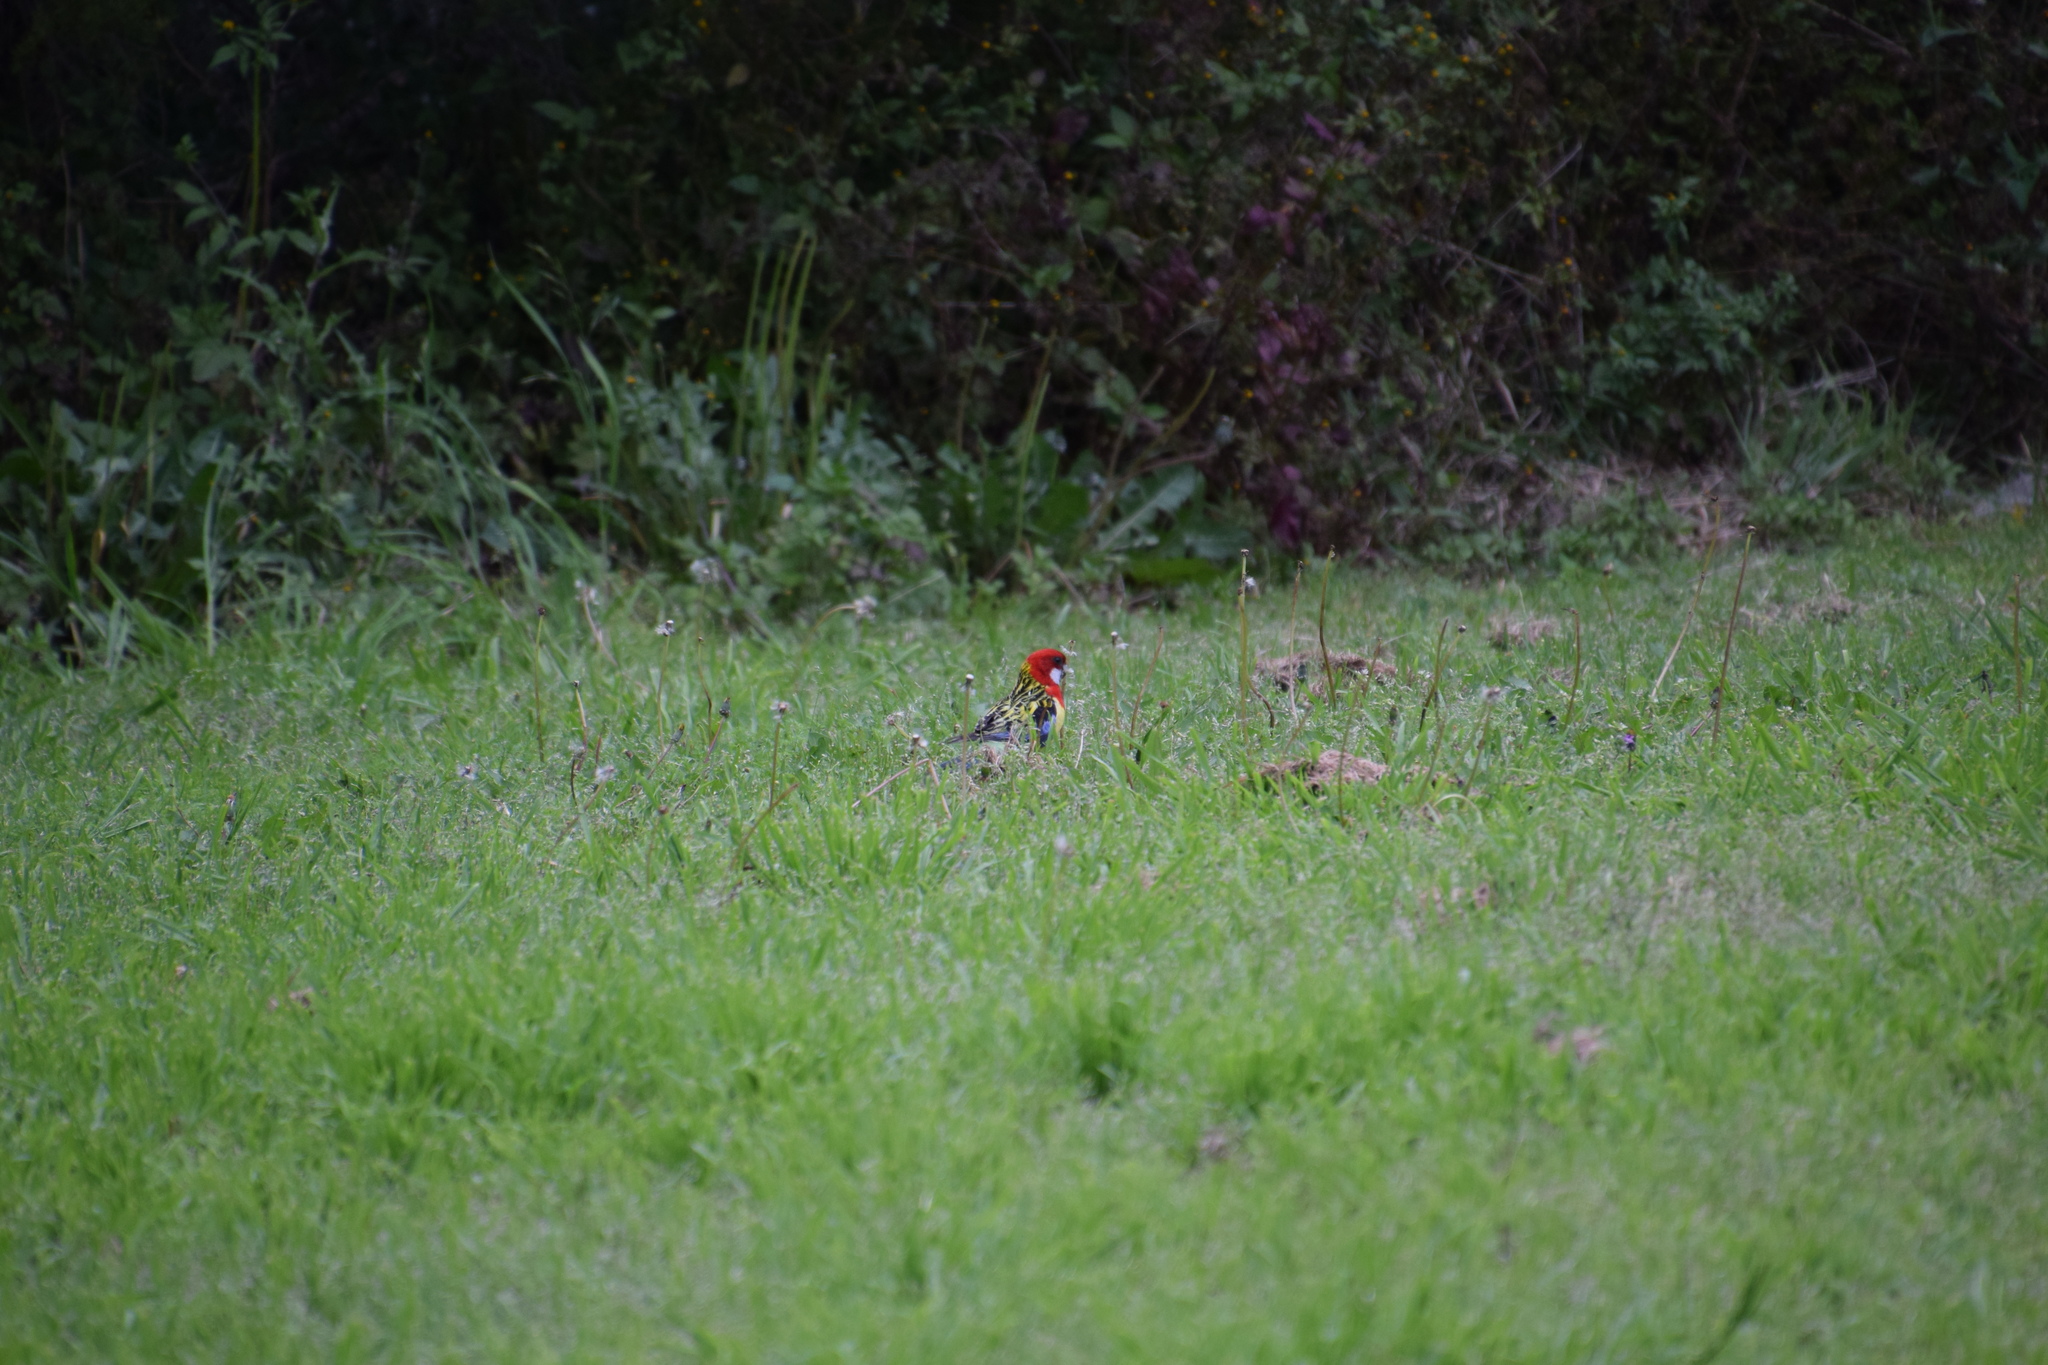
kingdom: Animalia
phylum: Chordata
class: Aves
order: Psittaciformes
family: Psittacidae
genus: Platycercus
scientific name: Platycercus eximius
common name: Eastern rosella
